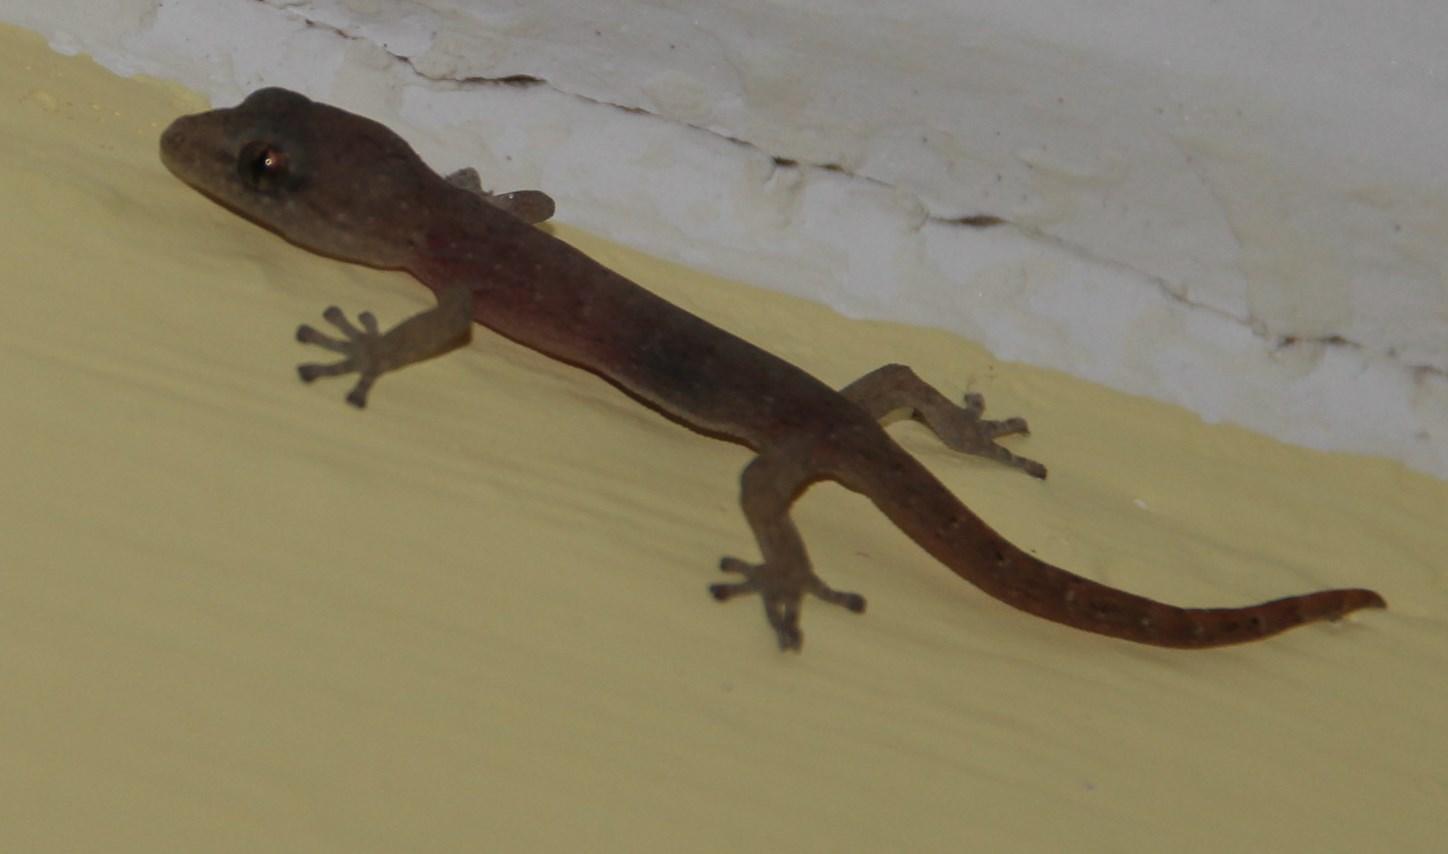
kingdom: Animalia
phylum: Chordata
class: Squamata
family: Gekkonidae
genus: Afrogecko
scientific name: Afrogecko porphyreus
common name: Marbled leaf-toed gecko
